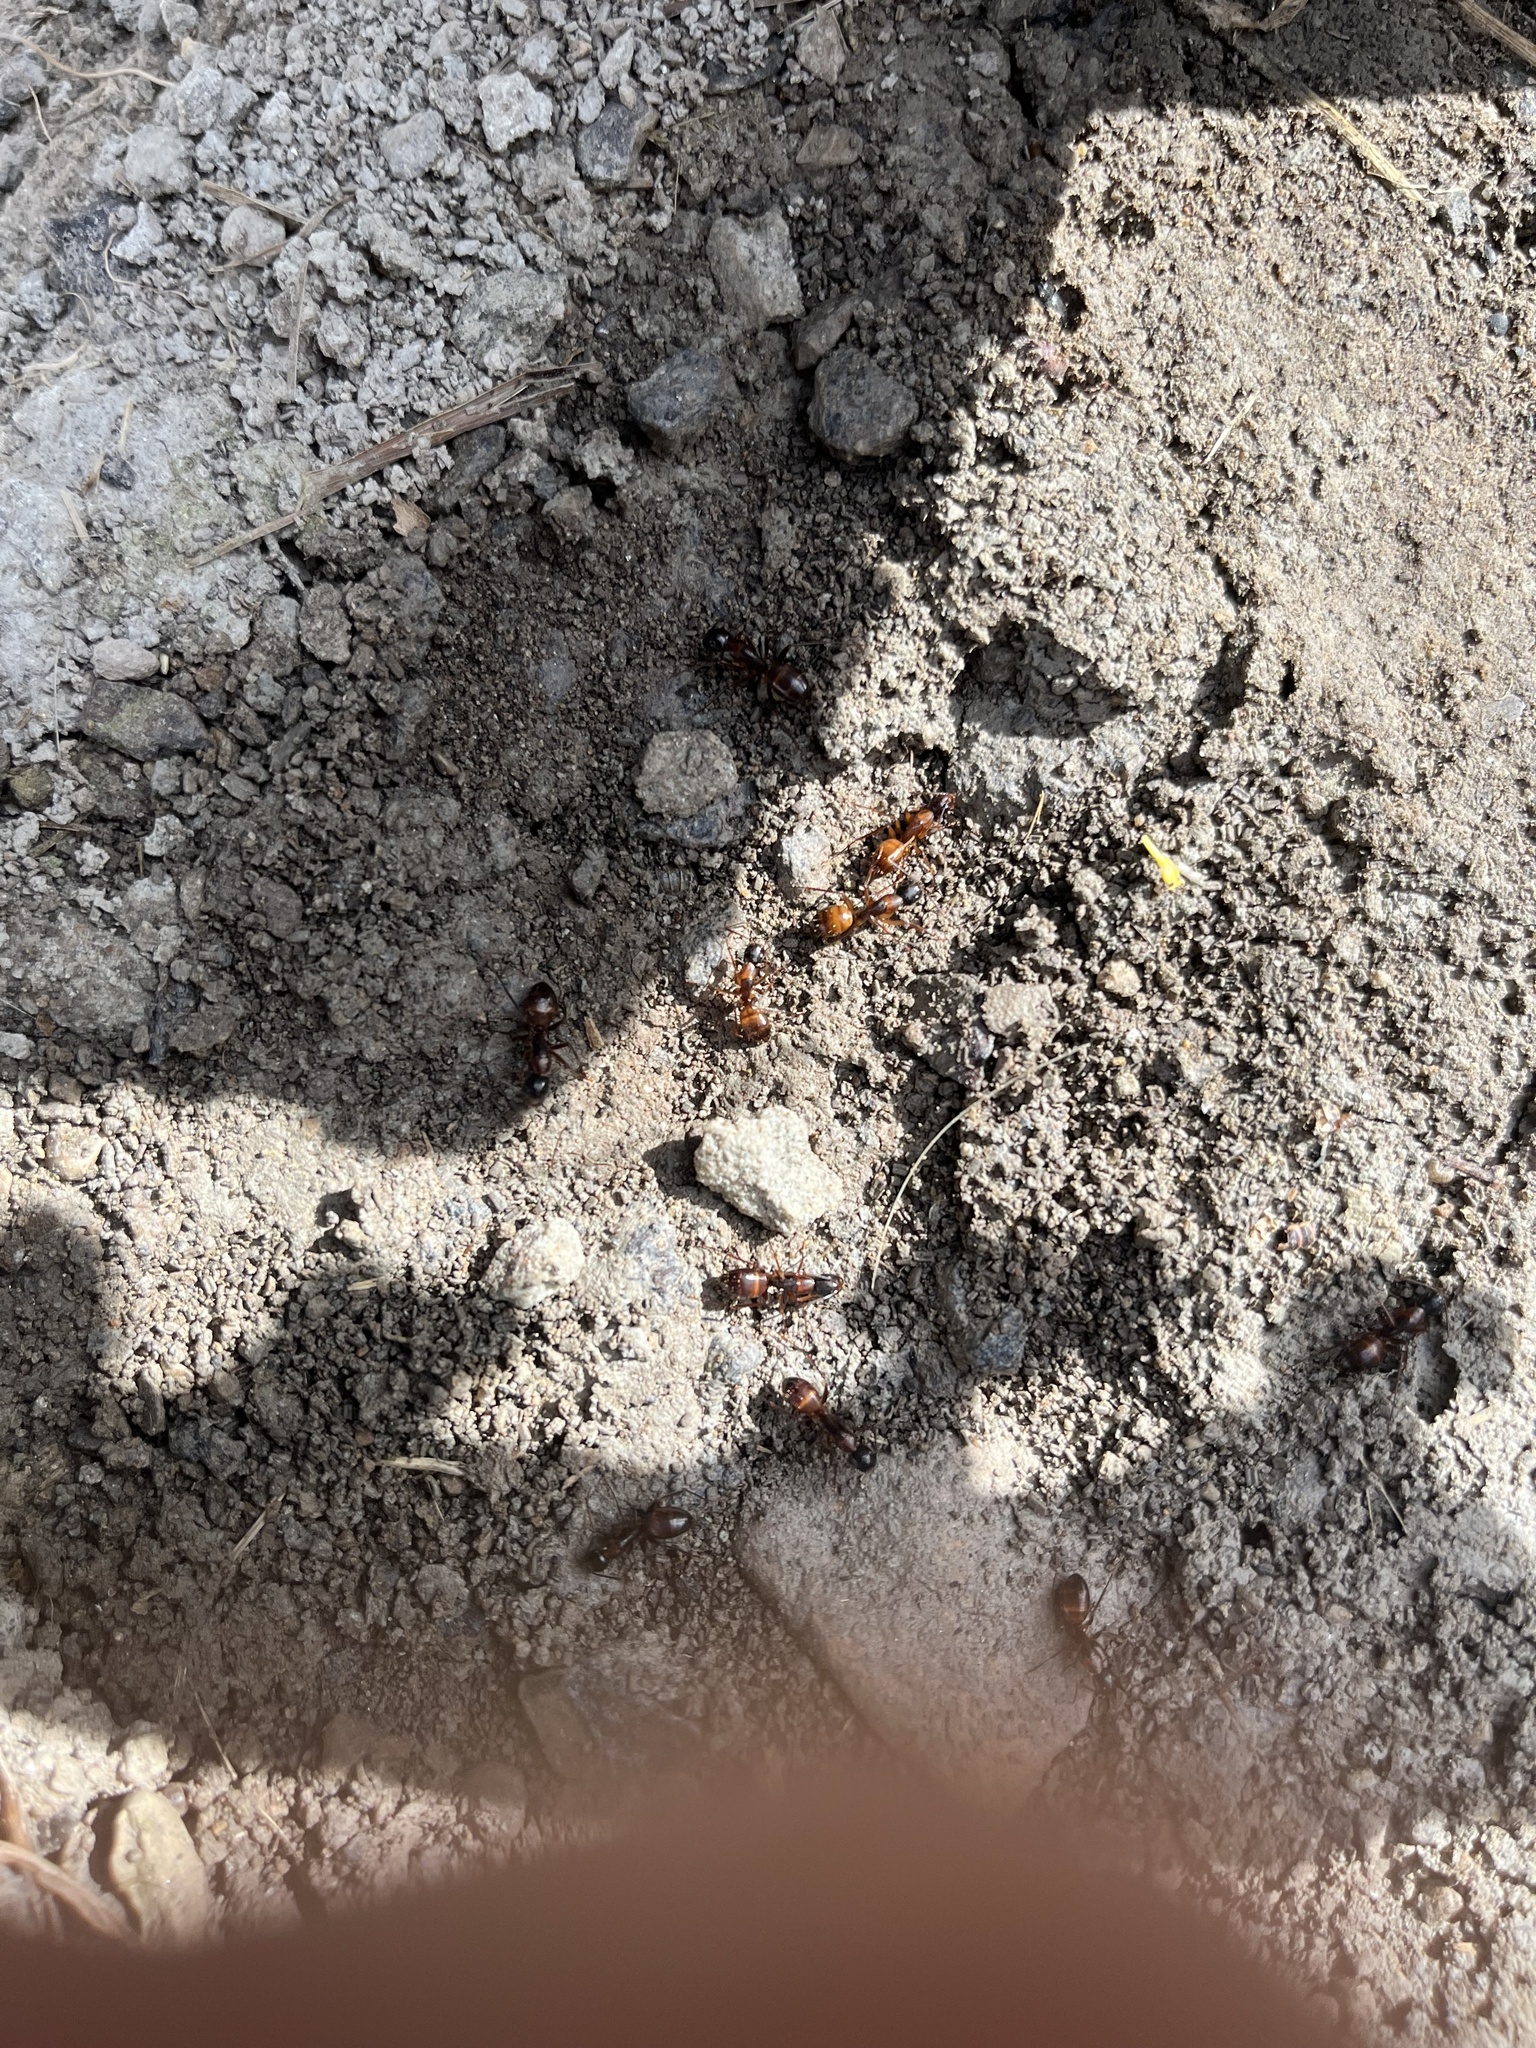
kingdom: Animalia
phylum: Arthropoda
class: Insecta
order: Hymenoptera
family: Formicidae
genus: Camponotus
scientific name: Camponotus americanus
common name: American carpenter ant
